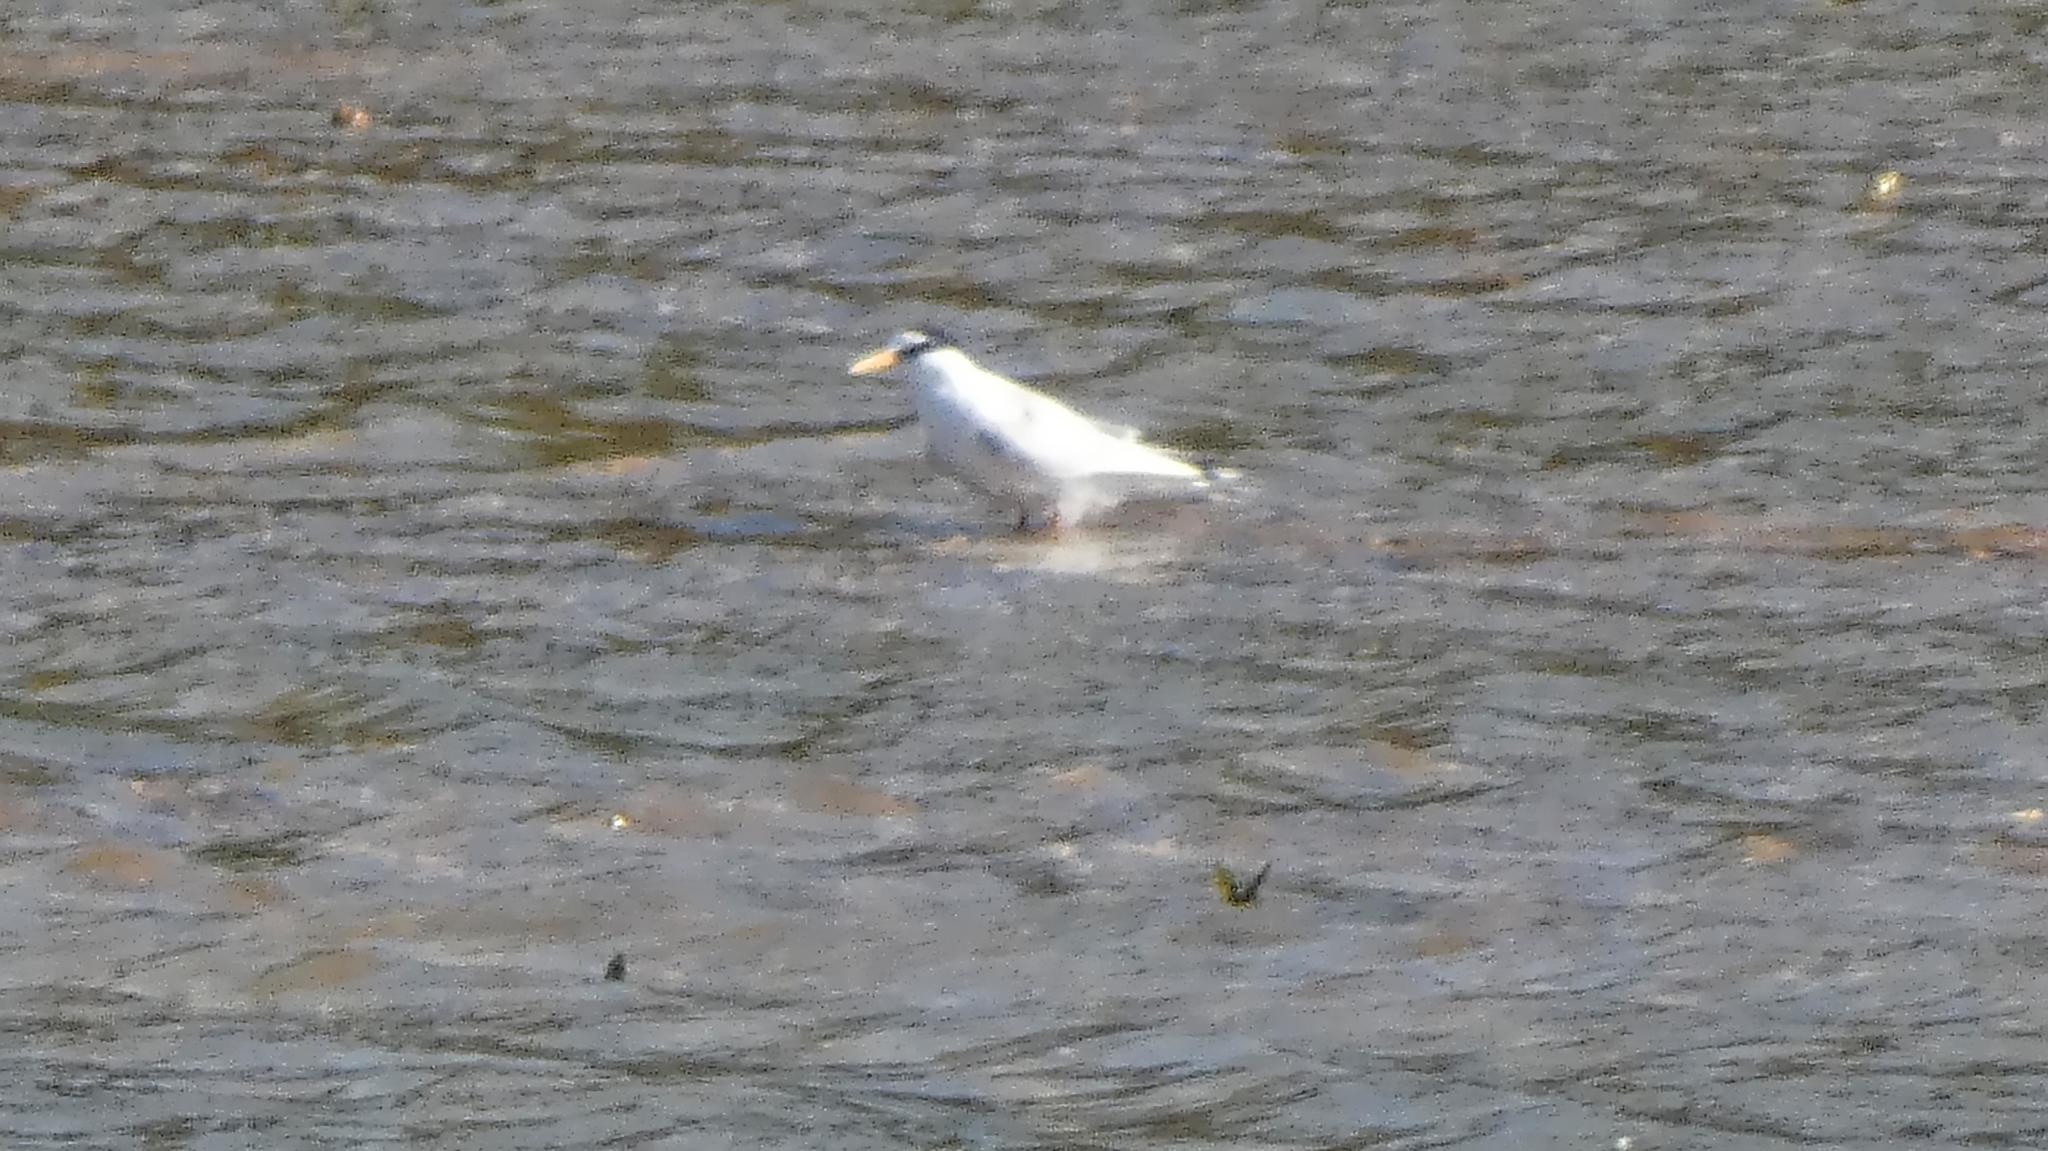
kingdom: Animalia
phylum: Chordata
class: Aves
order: Charadriiformes
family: Laridae
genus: Sternula
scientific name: Sternula albifrons
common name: Little tern
